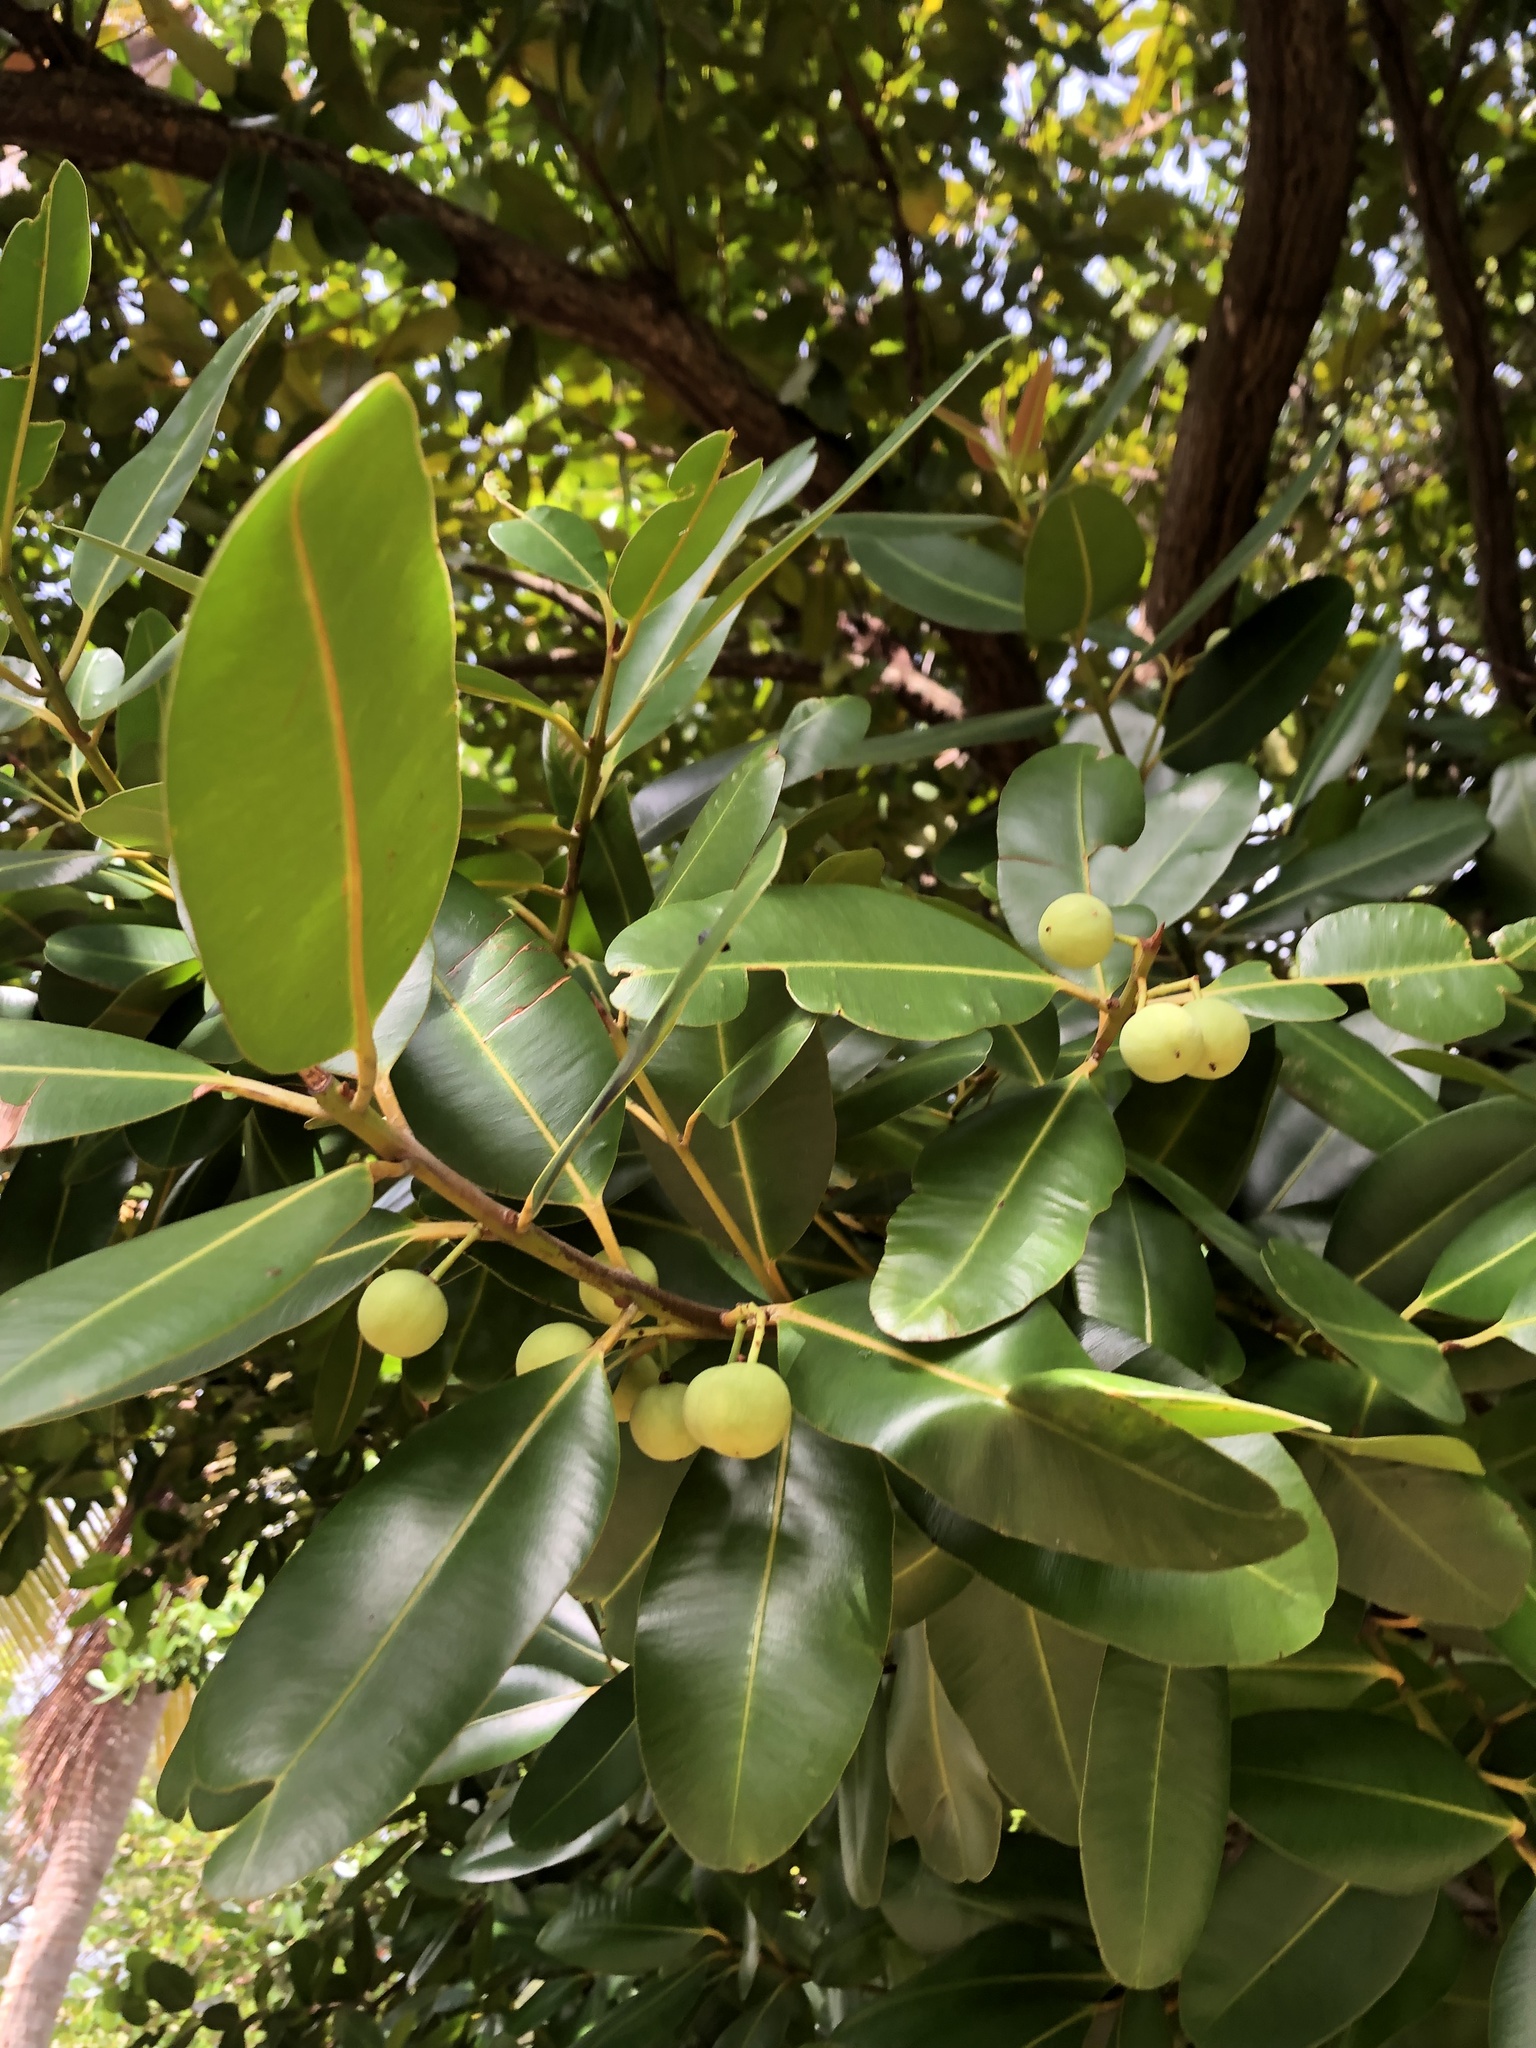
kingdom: Plantae
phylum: Tracheophyta
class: Magnoliopsida
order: Malpighiales
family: Calophyllaceae
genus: Calophyllum
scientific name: Calophyllum antillanum
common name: Santa maria-tree
